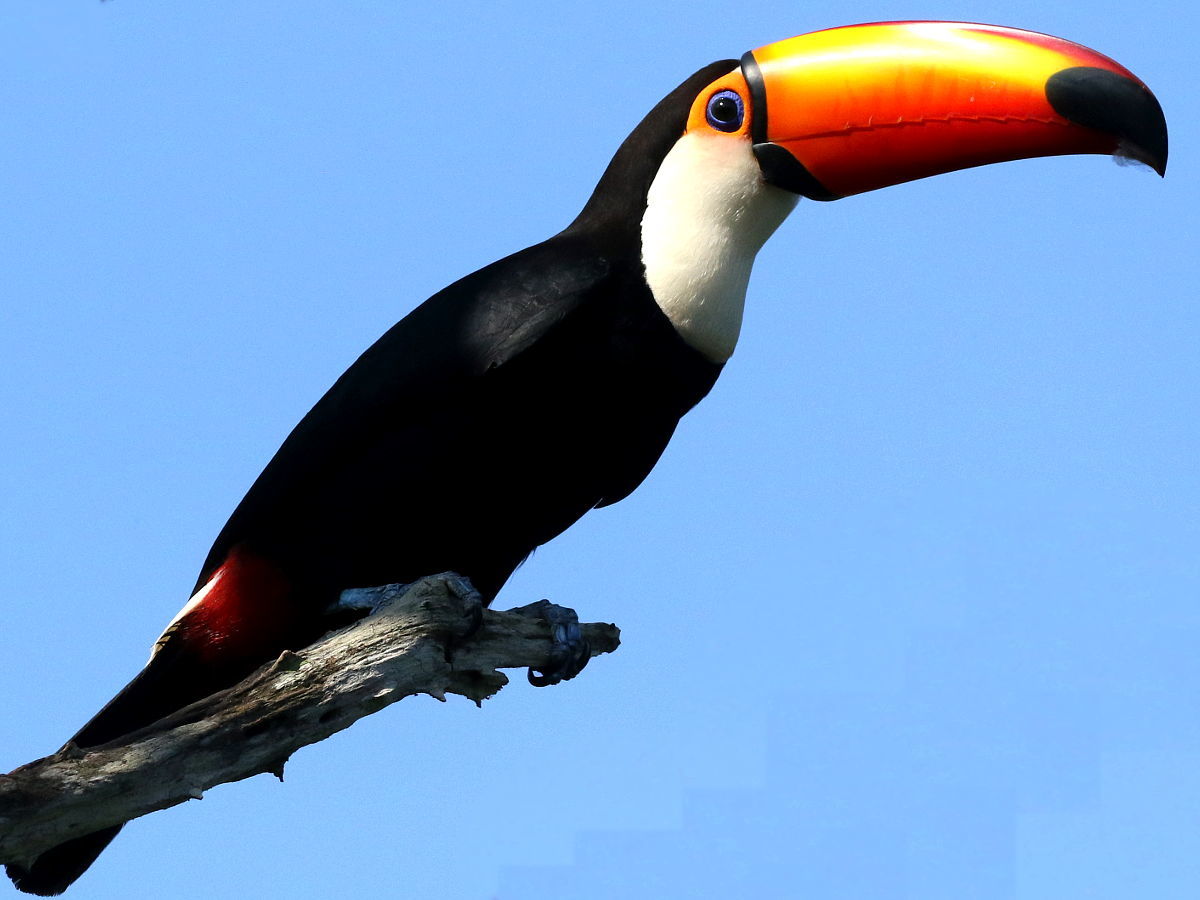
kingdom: Animalia
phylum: Chordata
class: Aves
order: Piciformes
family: Ramphastidae
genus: Ramphastos
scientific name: Ramphastos toco
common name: Toco toucan
